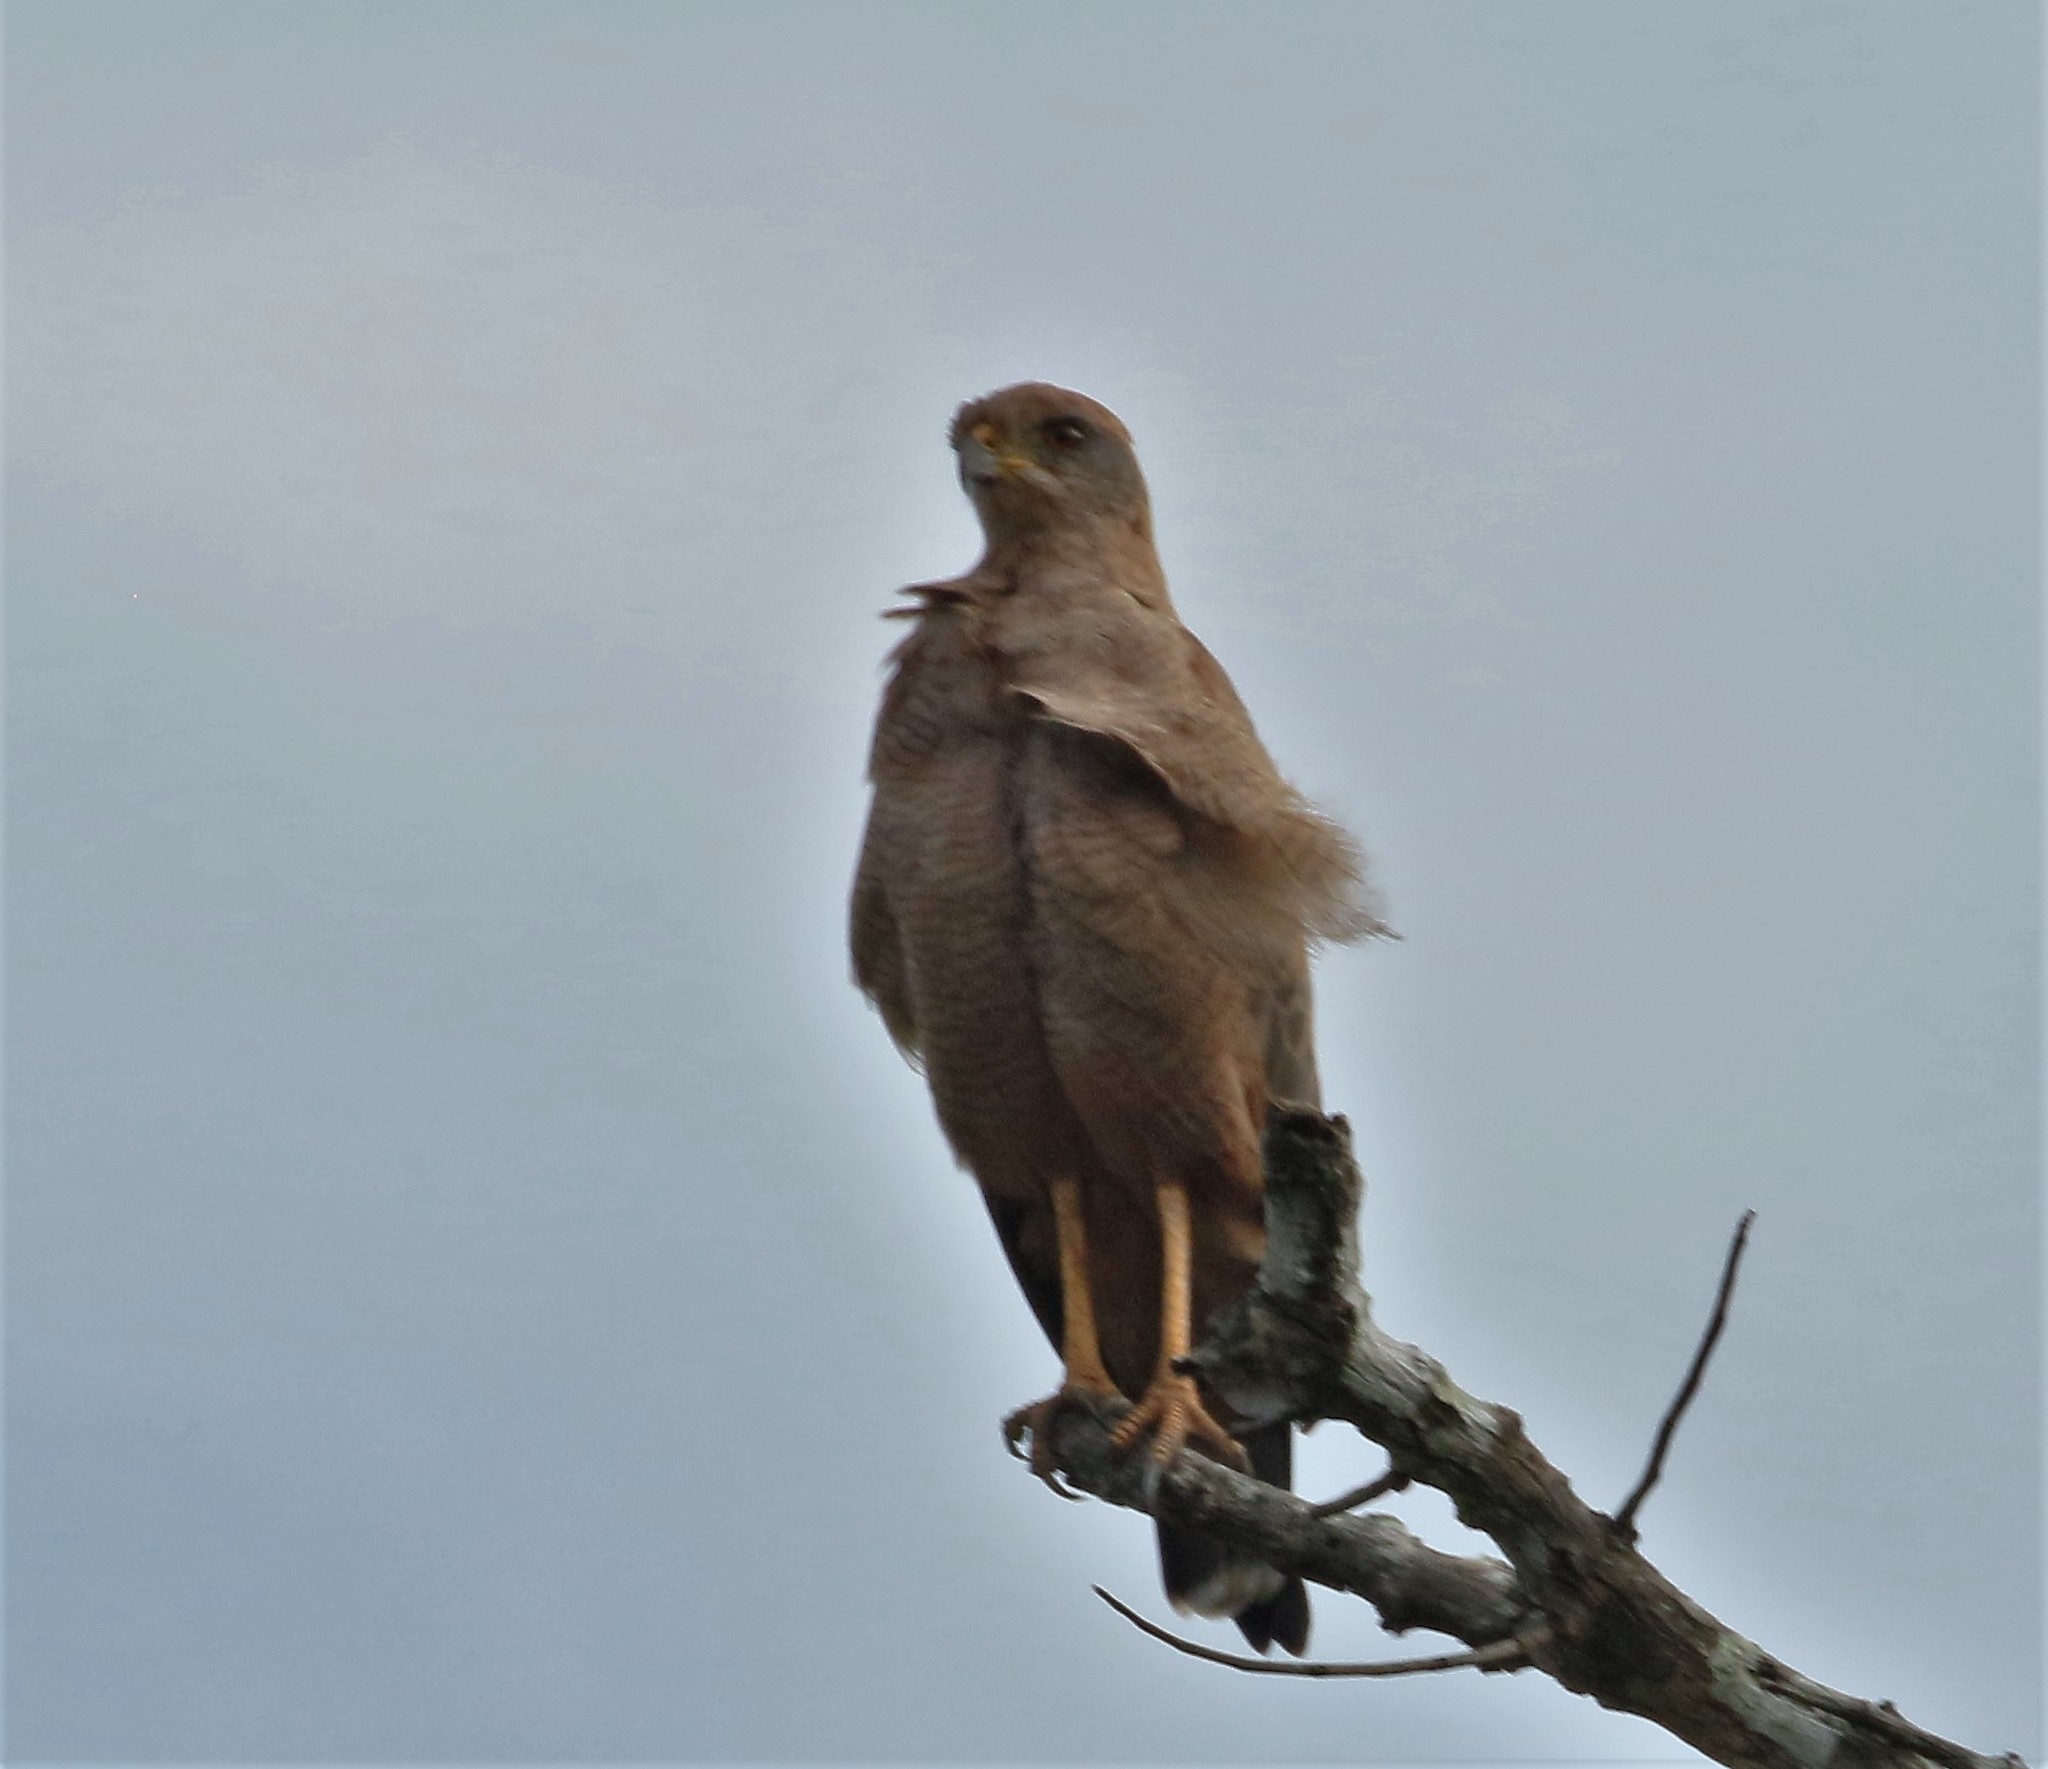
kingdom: Animalia
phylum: Chordata
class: Aves
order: Accipitriformes
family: Accipitridae
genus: Buteogallus
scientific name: Buteogallus meridionalis
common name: Savanna hawk
